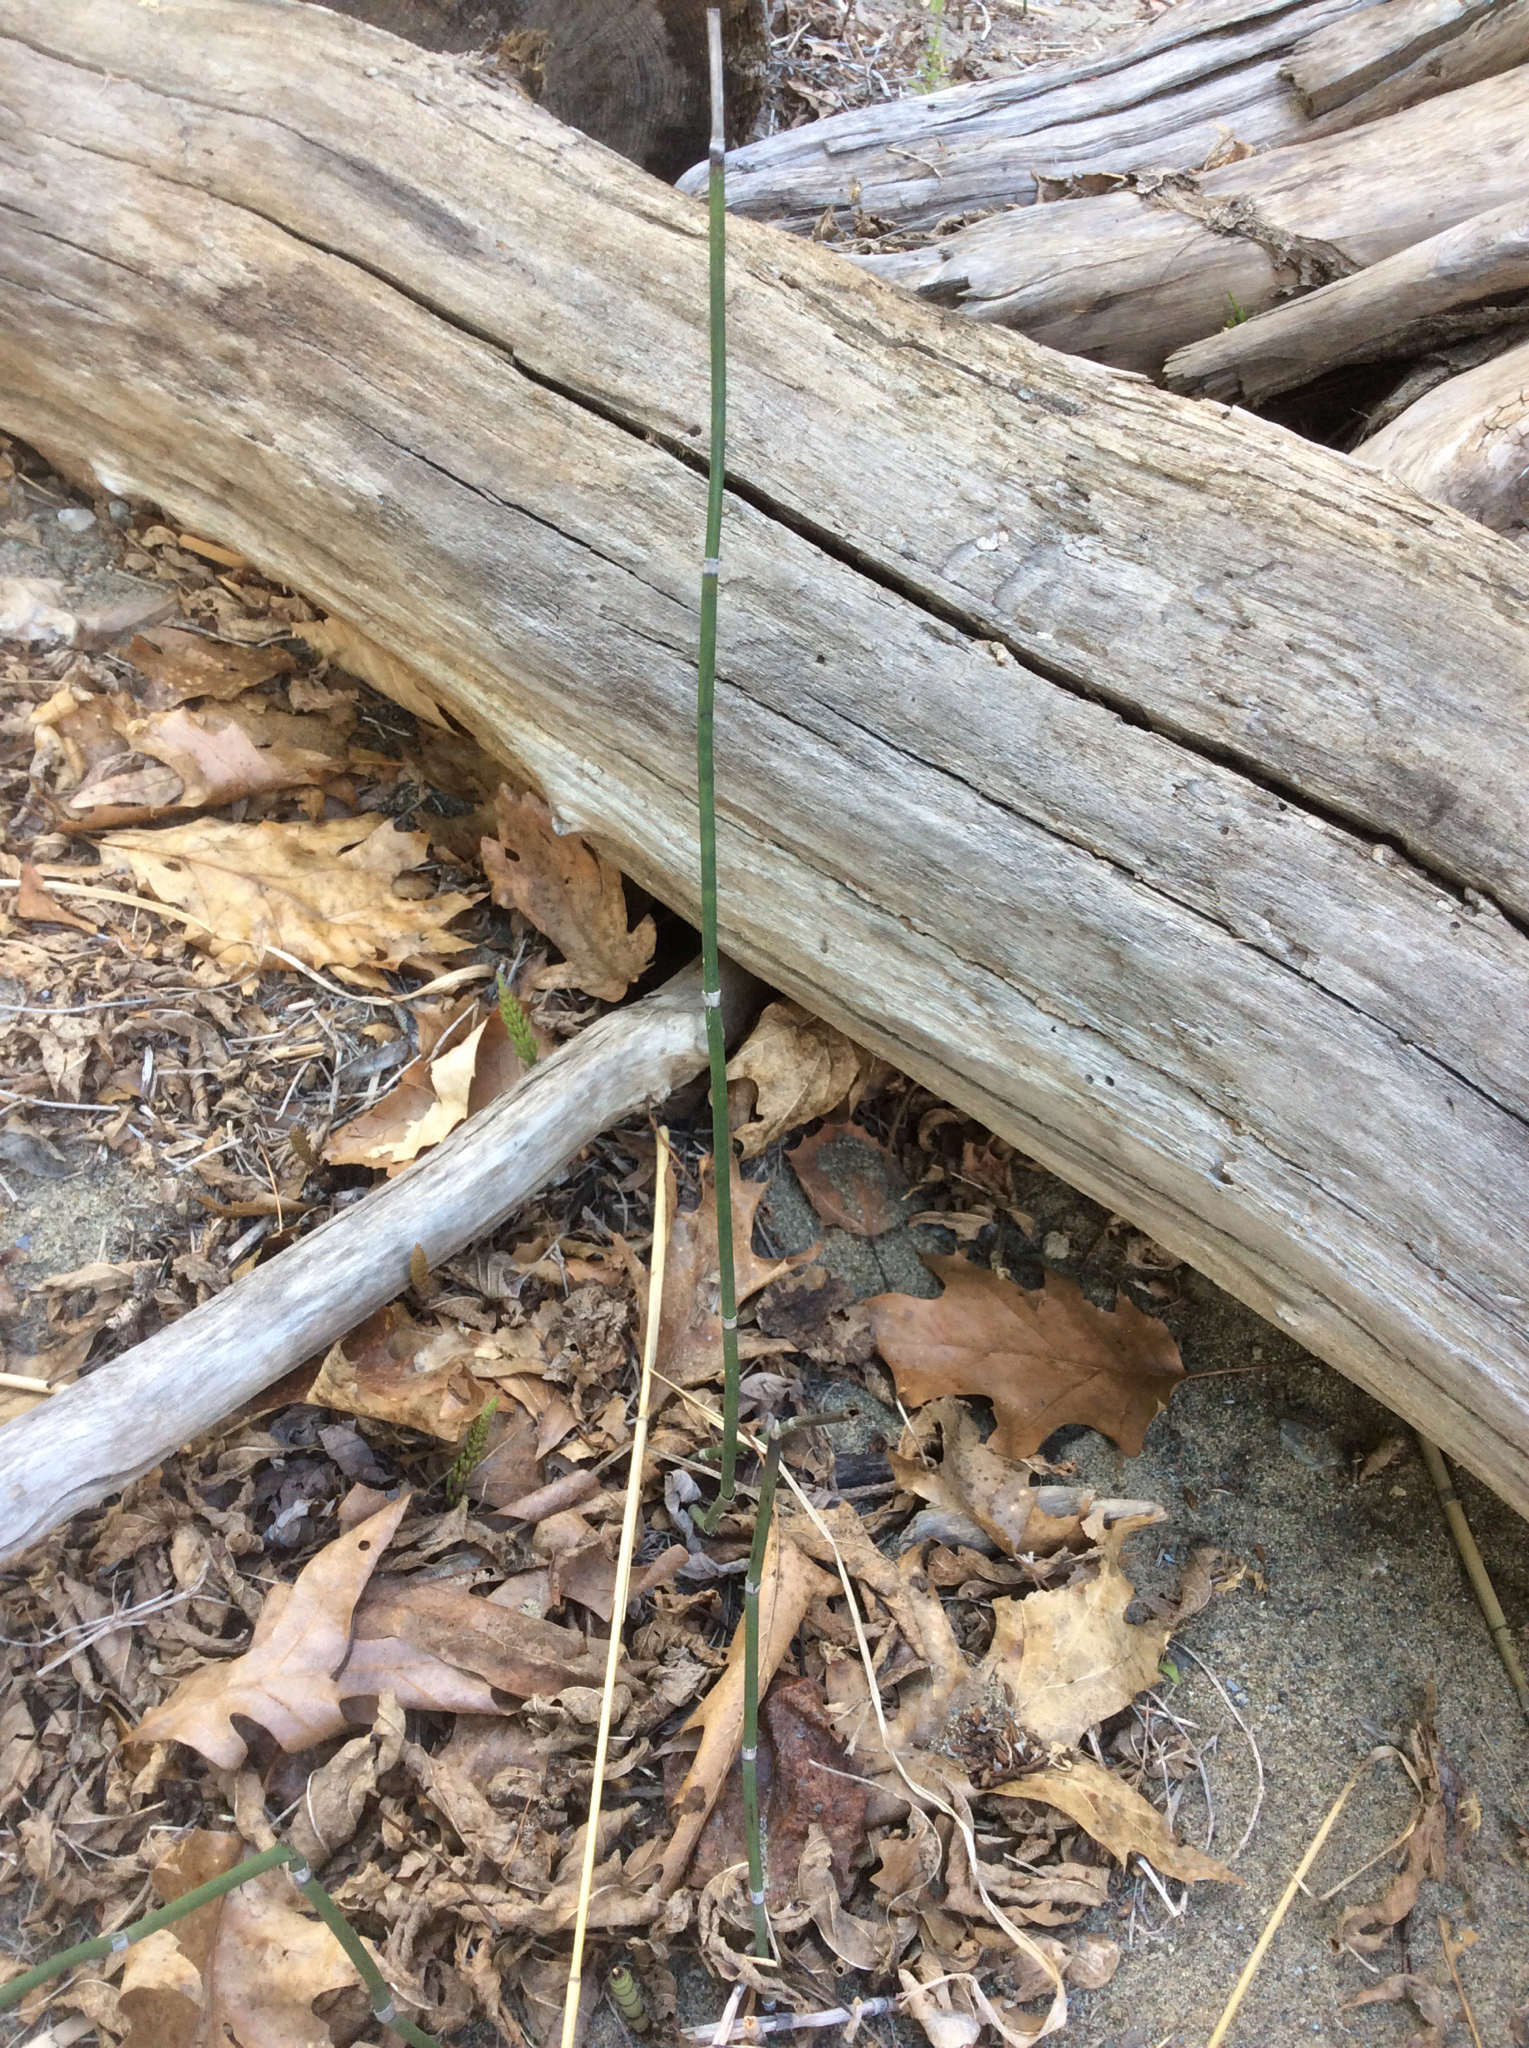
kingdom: Plantae
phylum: Tracheophyta
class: Polypodiopsida
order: Equisetales
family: Equisetaceae
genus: Equisetum
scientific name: Equisetum hyemale
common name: Rough horsetail
